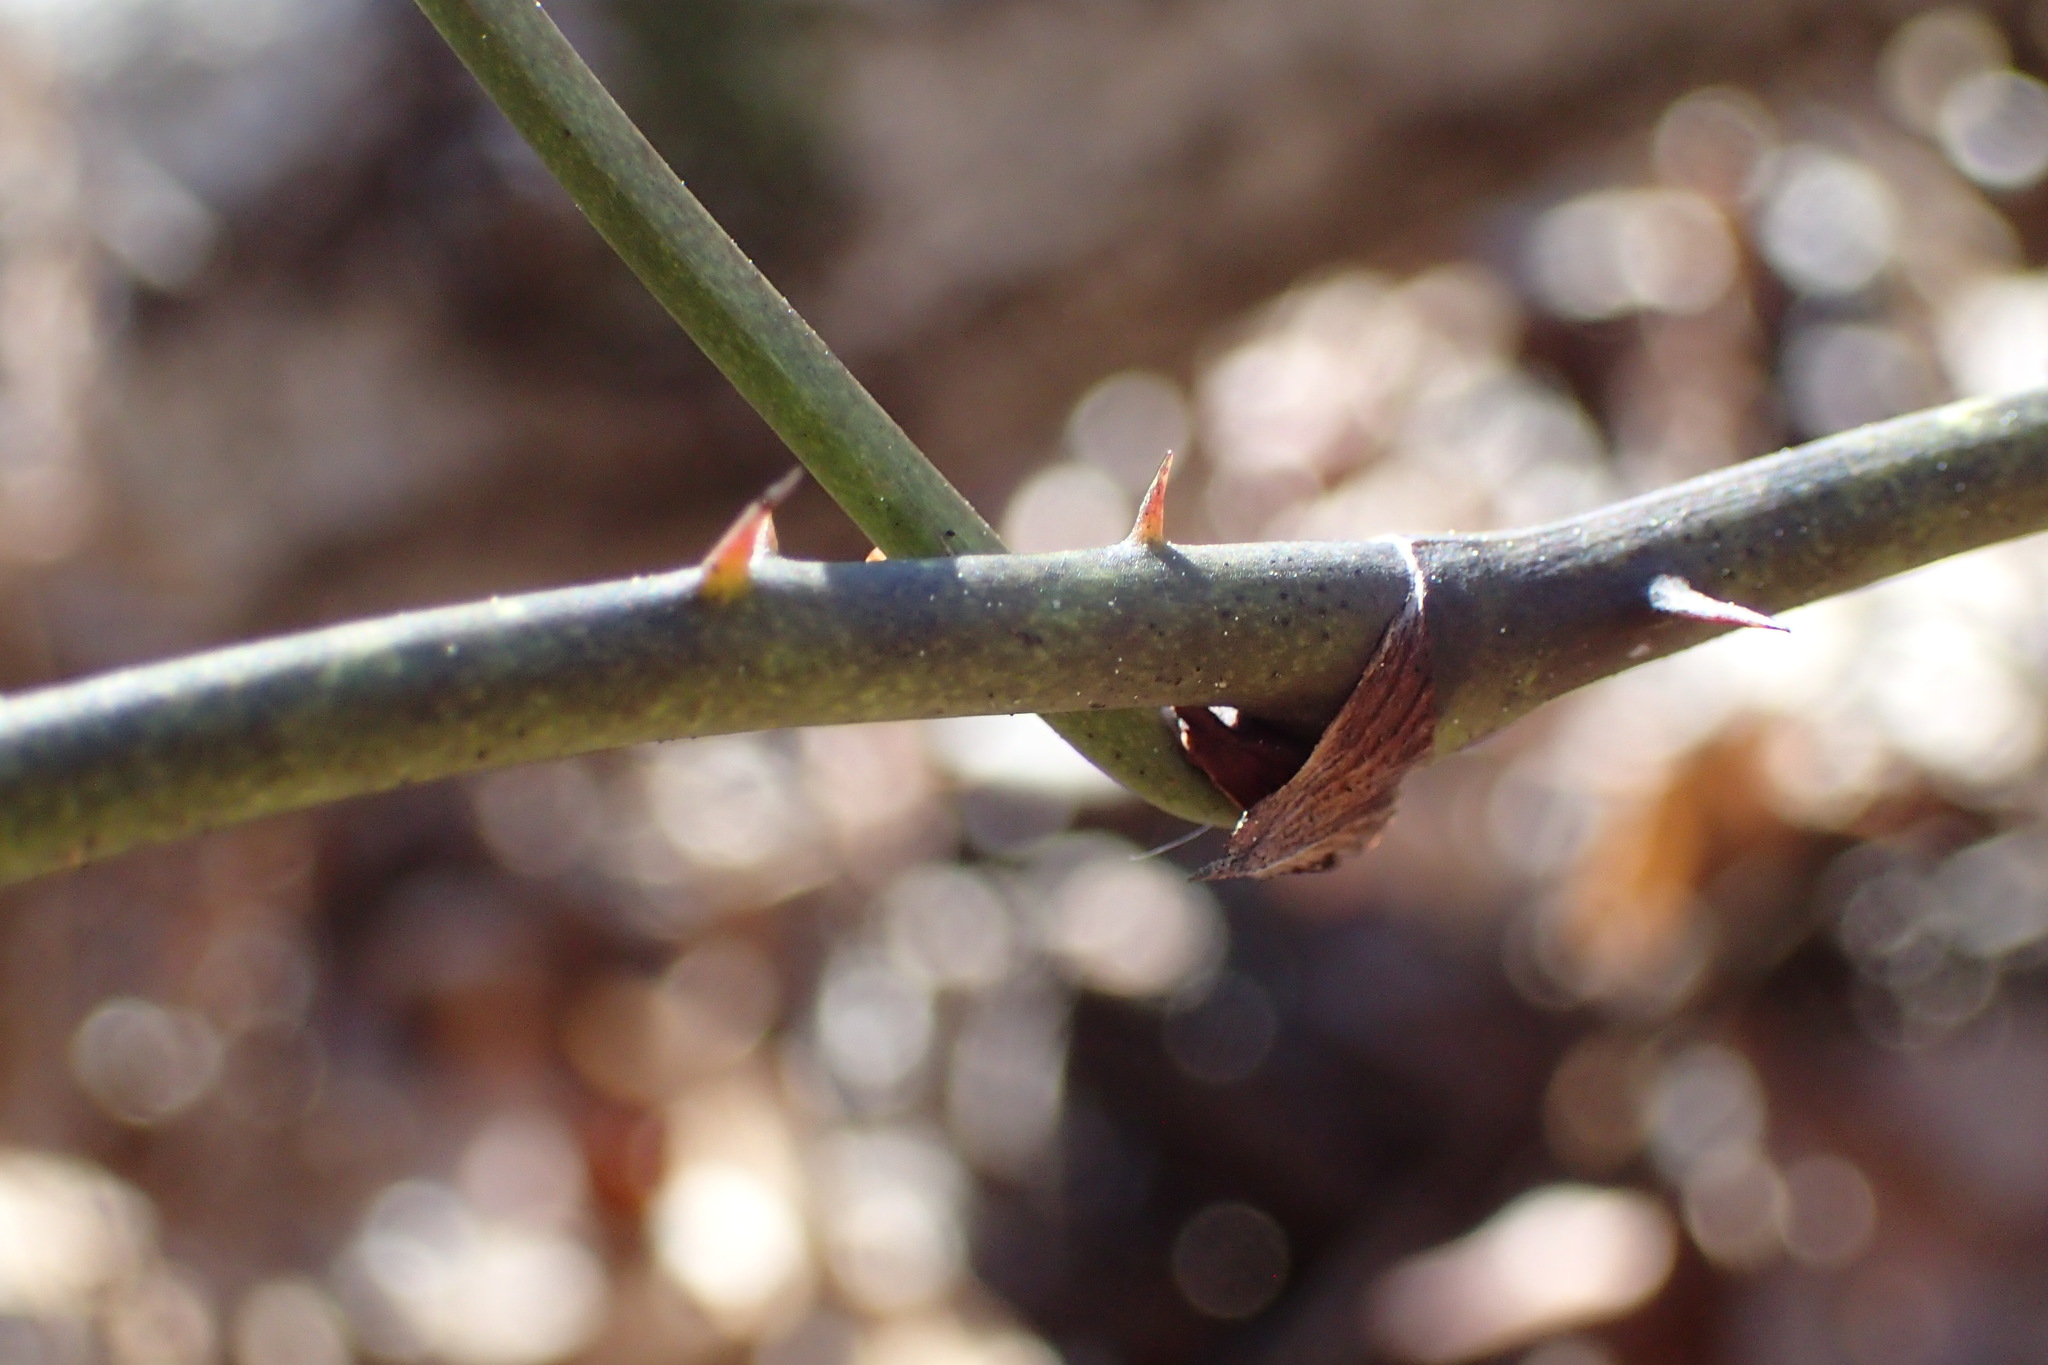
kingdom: Plantae
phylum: Tracheophyta
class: Liliopsida
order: Liliales
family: Smilacaceae
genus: Smilax
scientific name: Smilax laurifolia
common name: Bamboovine
